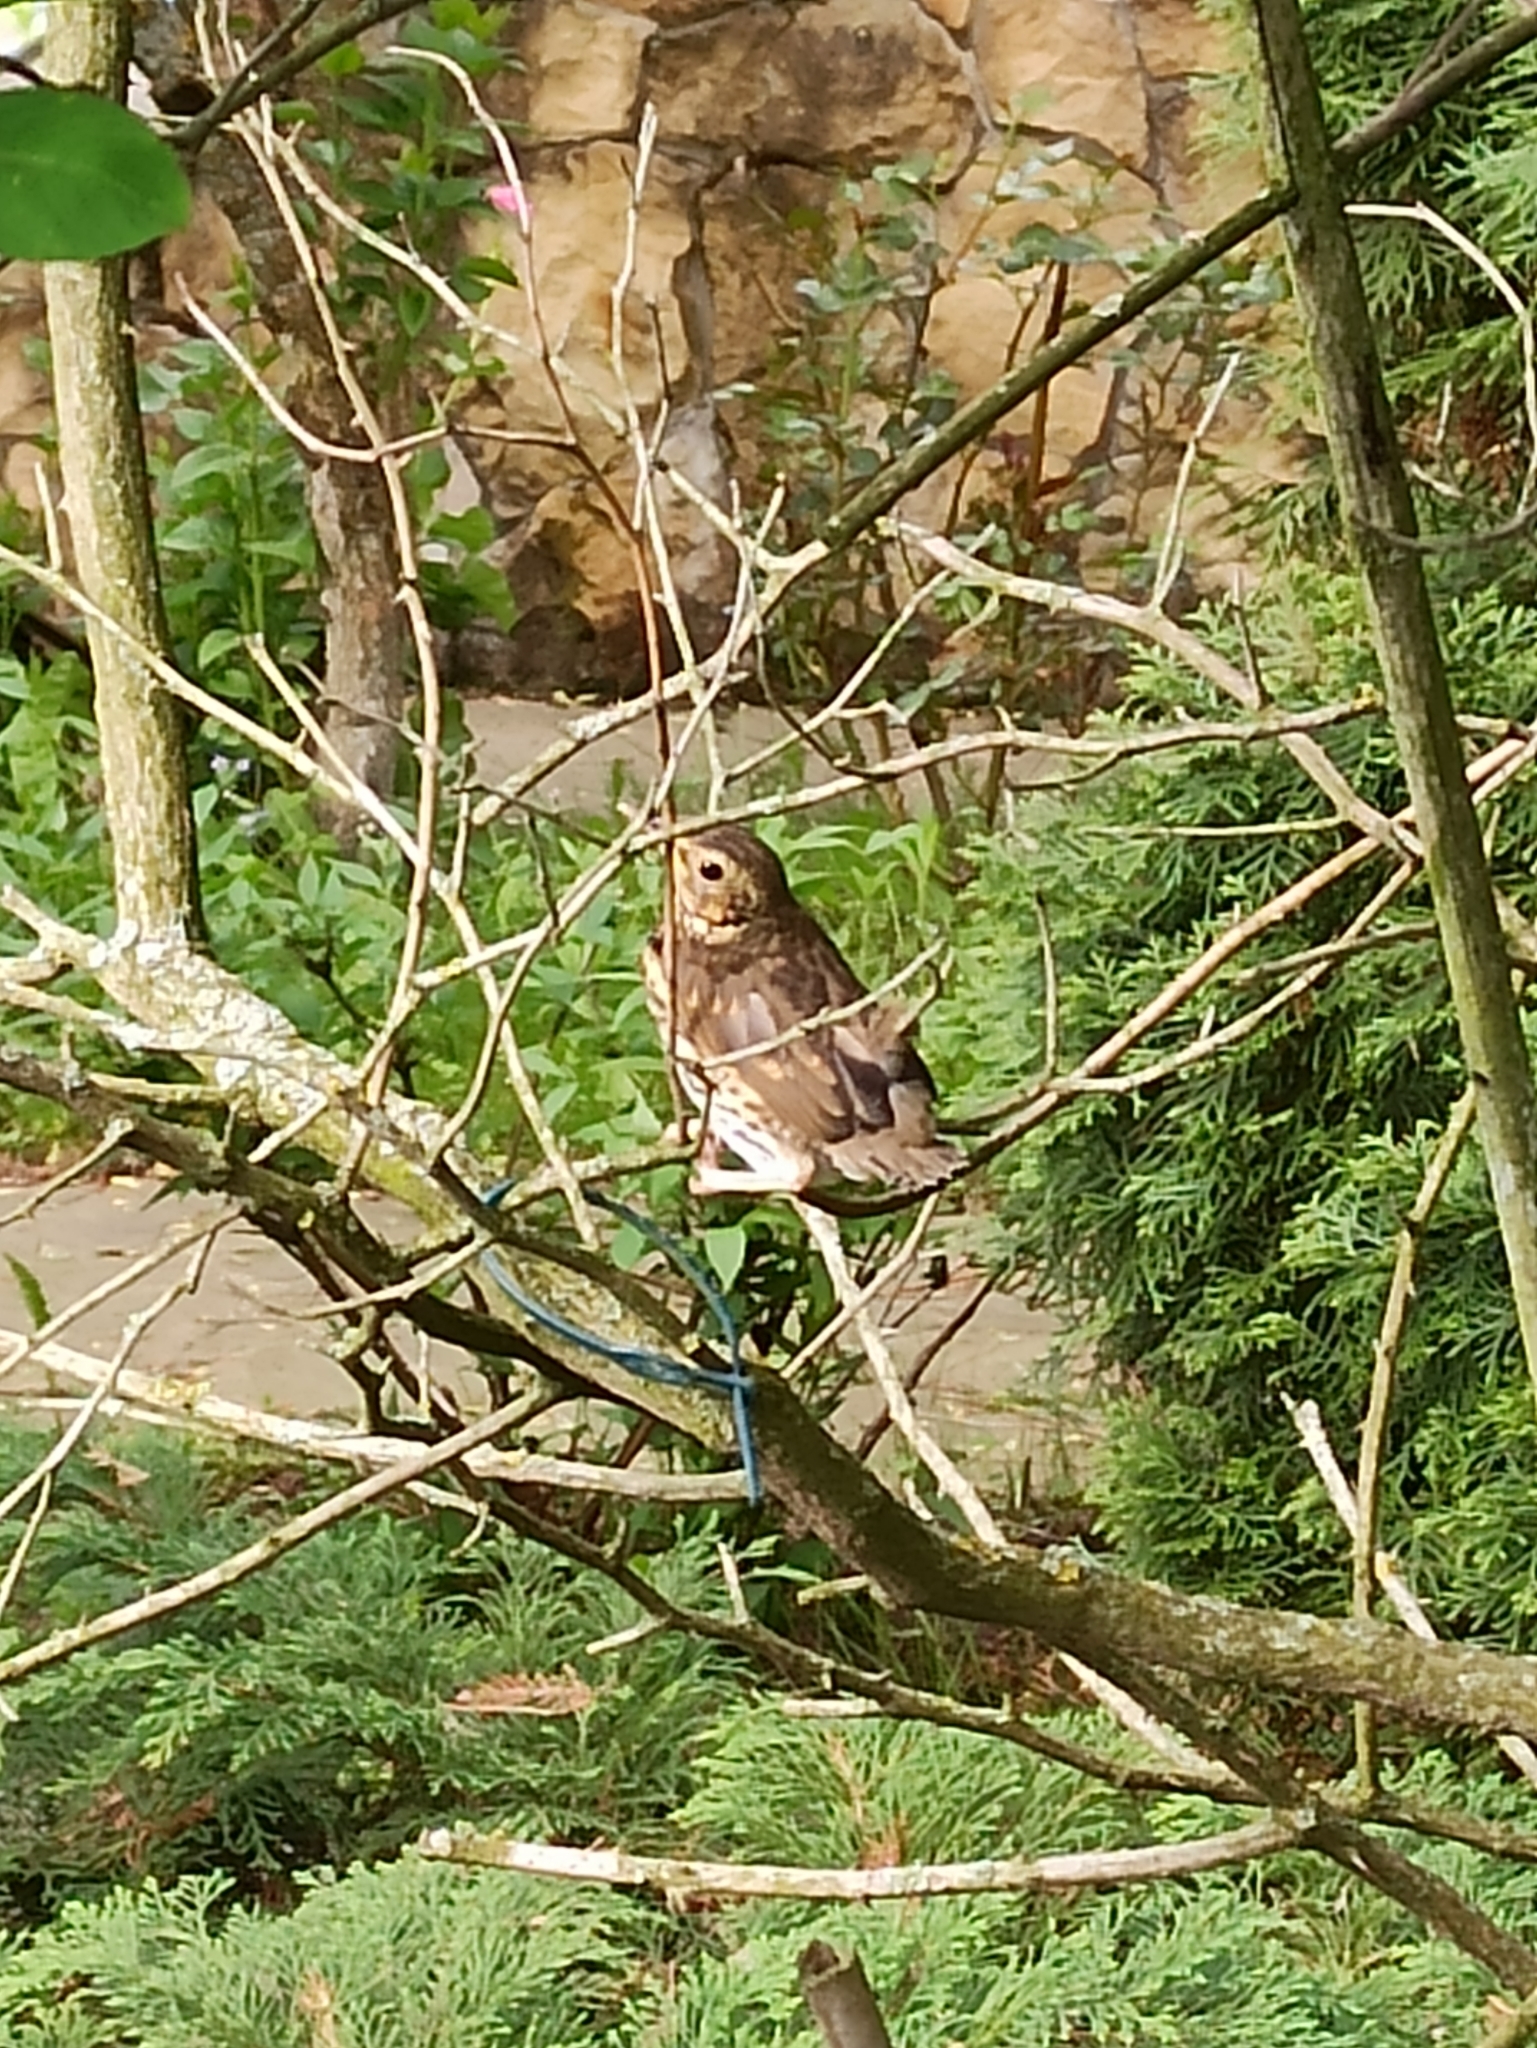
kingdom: Animalia
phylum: Chordata
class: Aves
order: Passeriformes
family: Turdidae
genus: Turdus
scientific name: Turdus philomelos
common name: Song thrush
